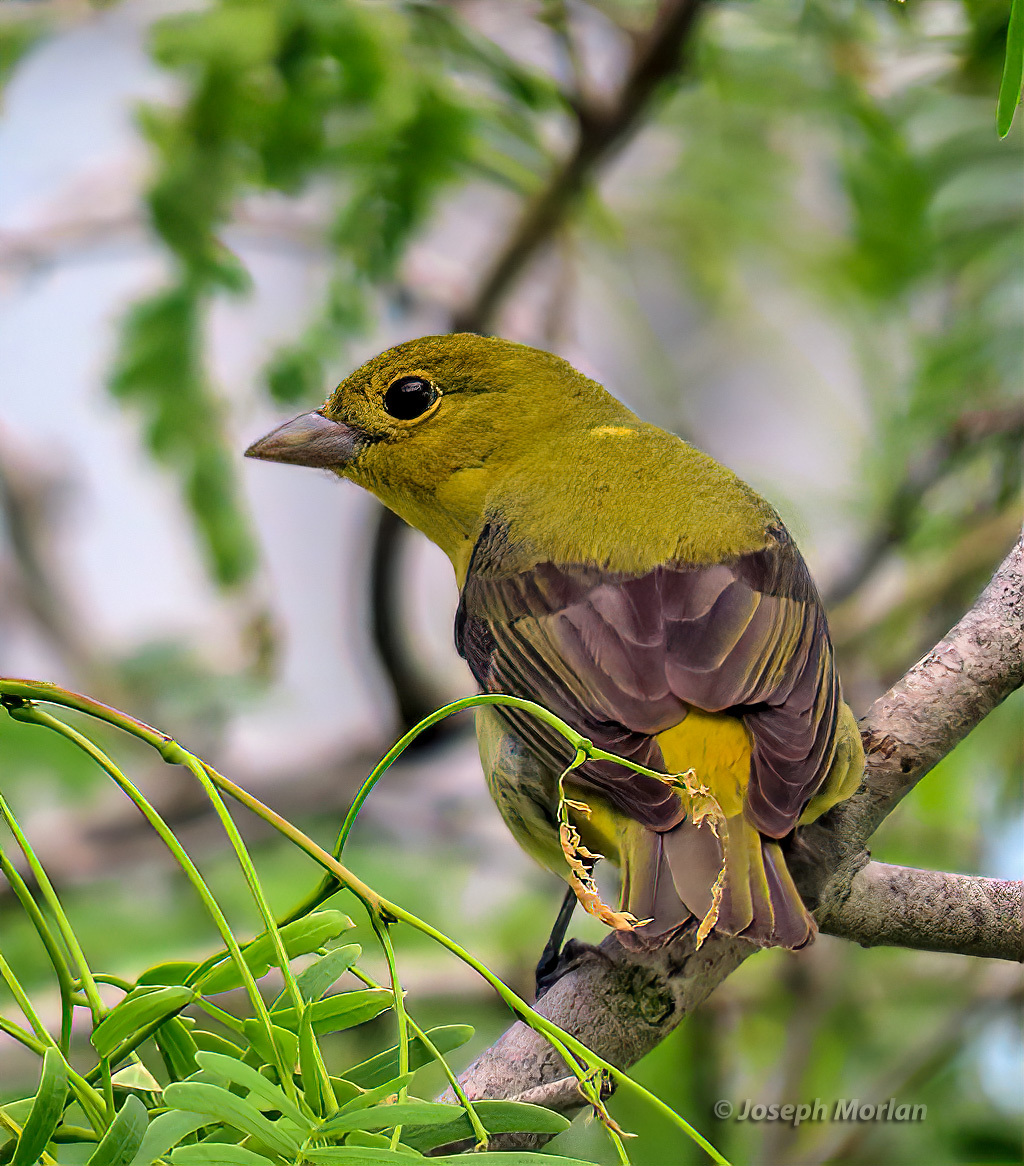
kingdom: Animalia
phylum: Chordata
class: Aves
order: Passeriformes
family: Cardinalidae
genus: Piranga
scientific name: Piranga olivacea
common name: Scarlet tanager
